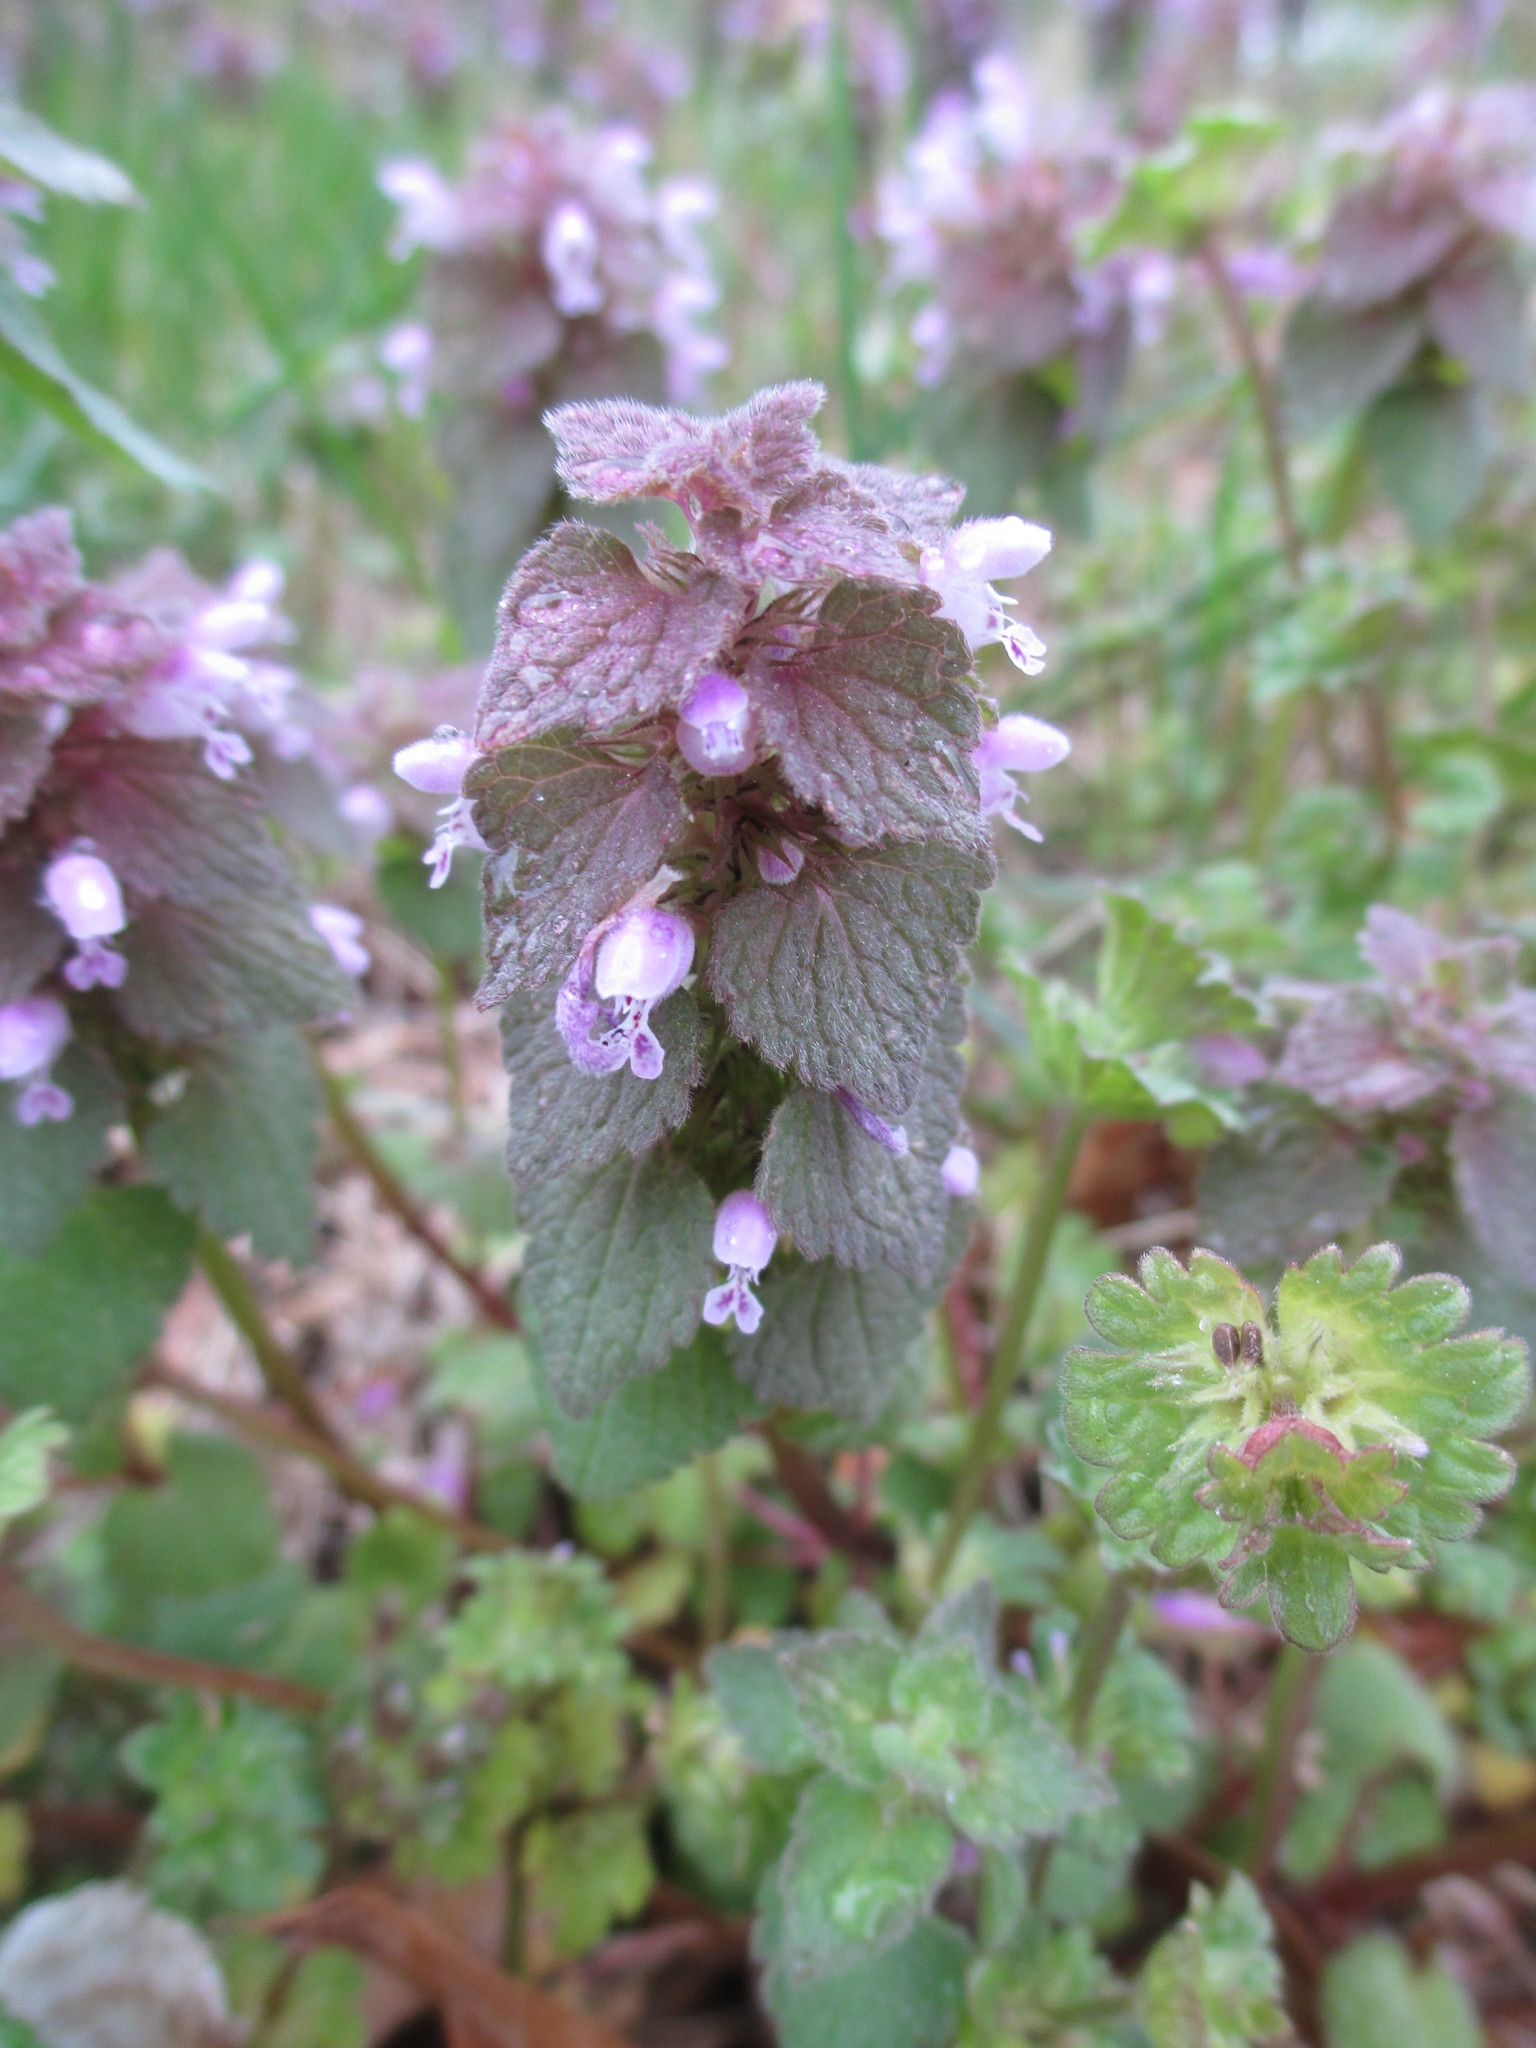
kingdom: Plantae
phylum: Tracheophyta
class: Magnoliopsida
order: Lamiales
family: Lamiaceae
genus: Lamium
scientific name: Lamium purpureum
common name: Red dead-nettle
